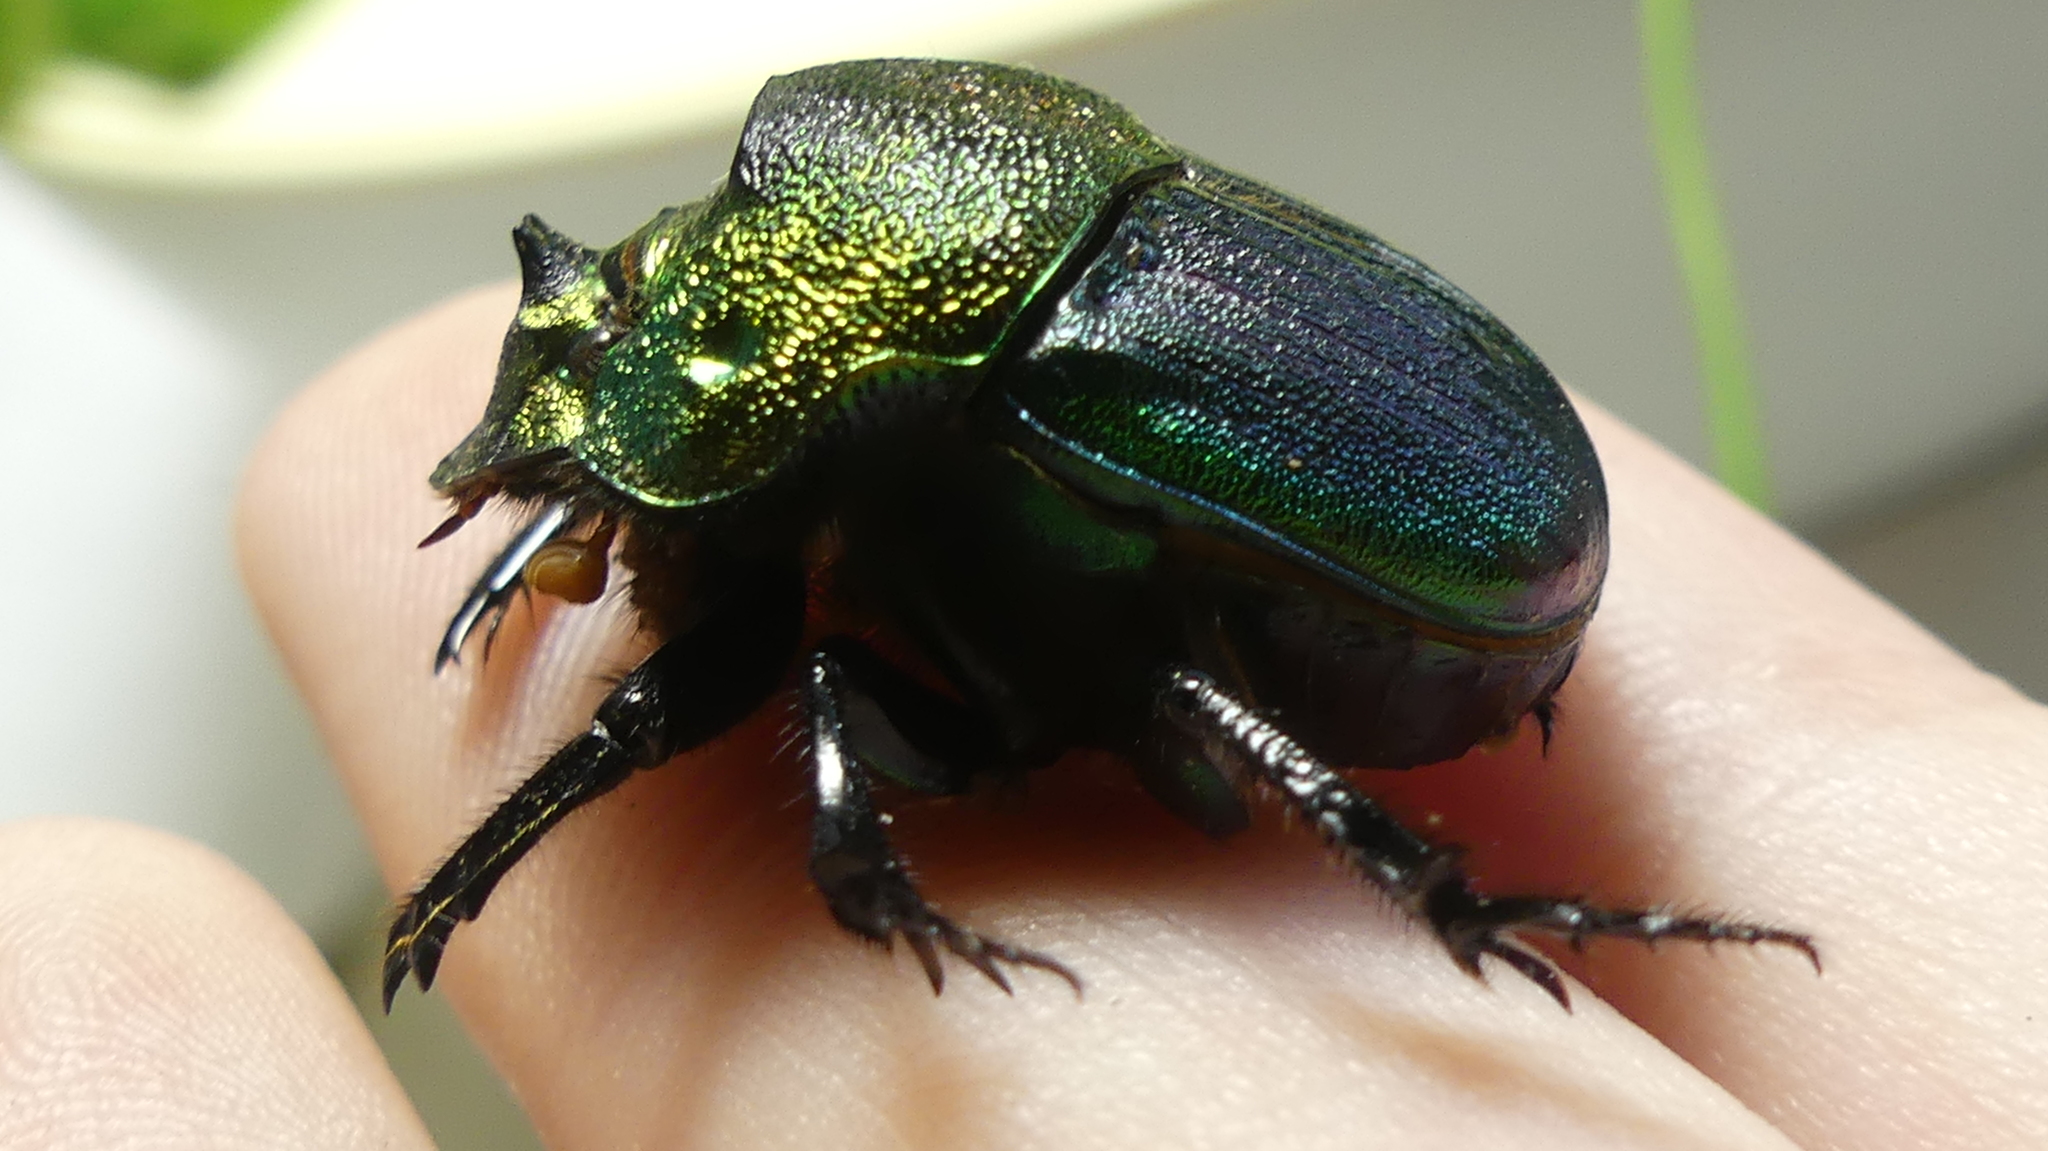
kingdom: Animalia
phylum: Arthropoda
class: Insecta
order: Coleoptera
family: Scarabaeidae
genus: Phanaeus
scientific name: Phanaeus vindex
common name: Rainbow scarab
